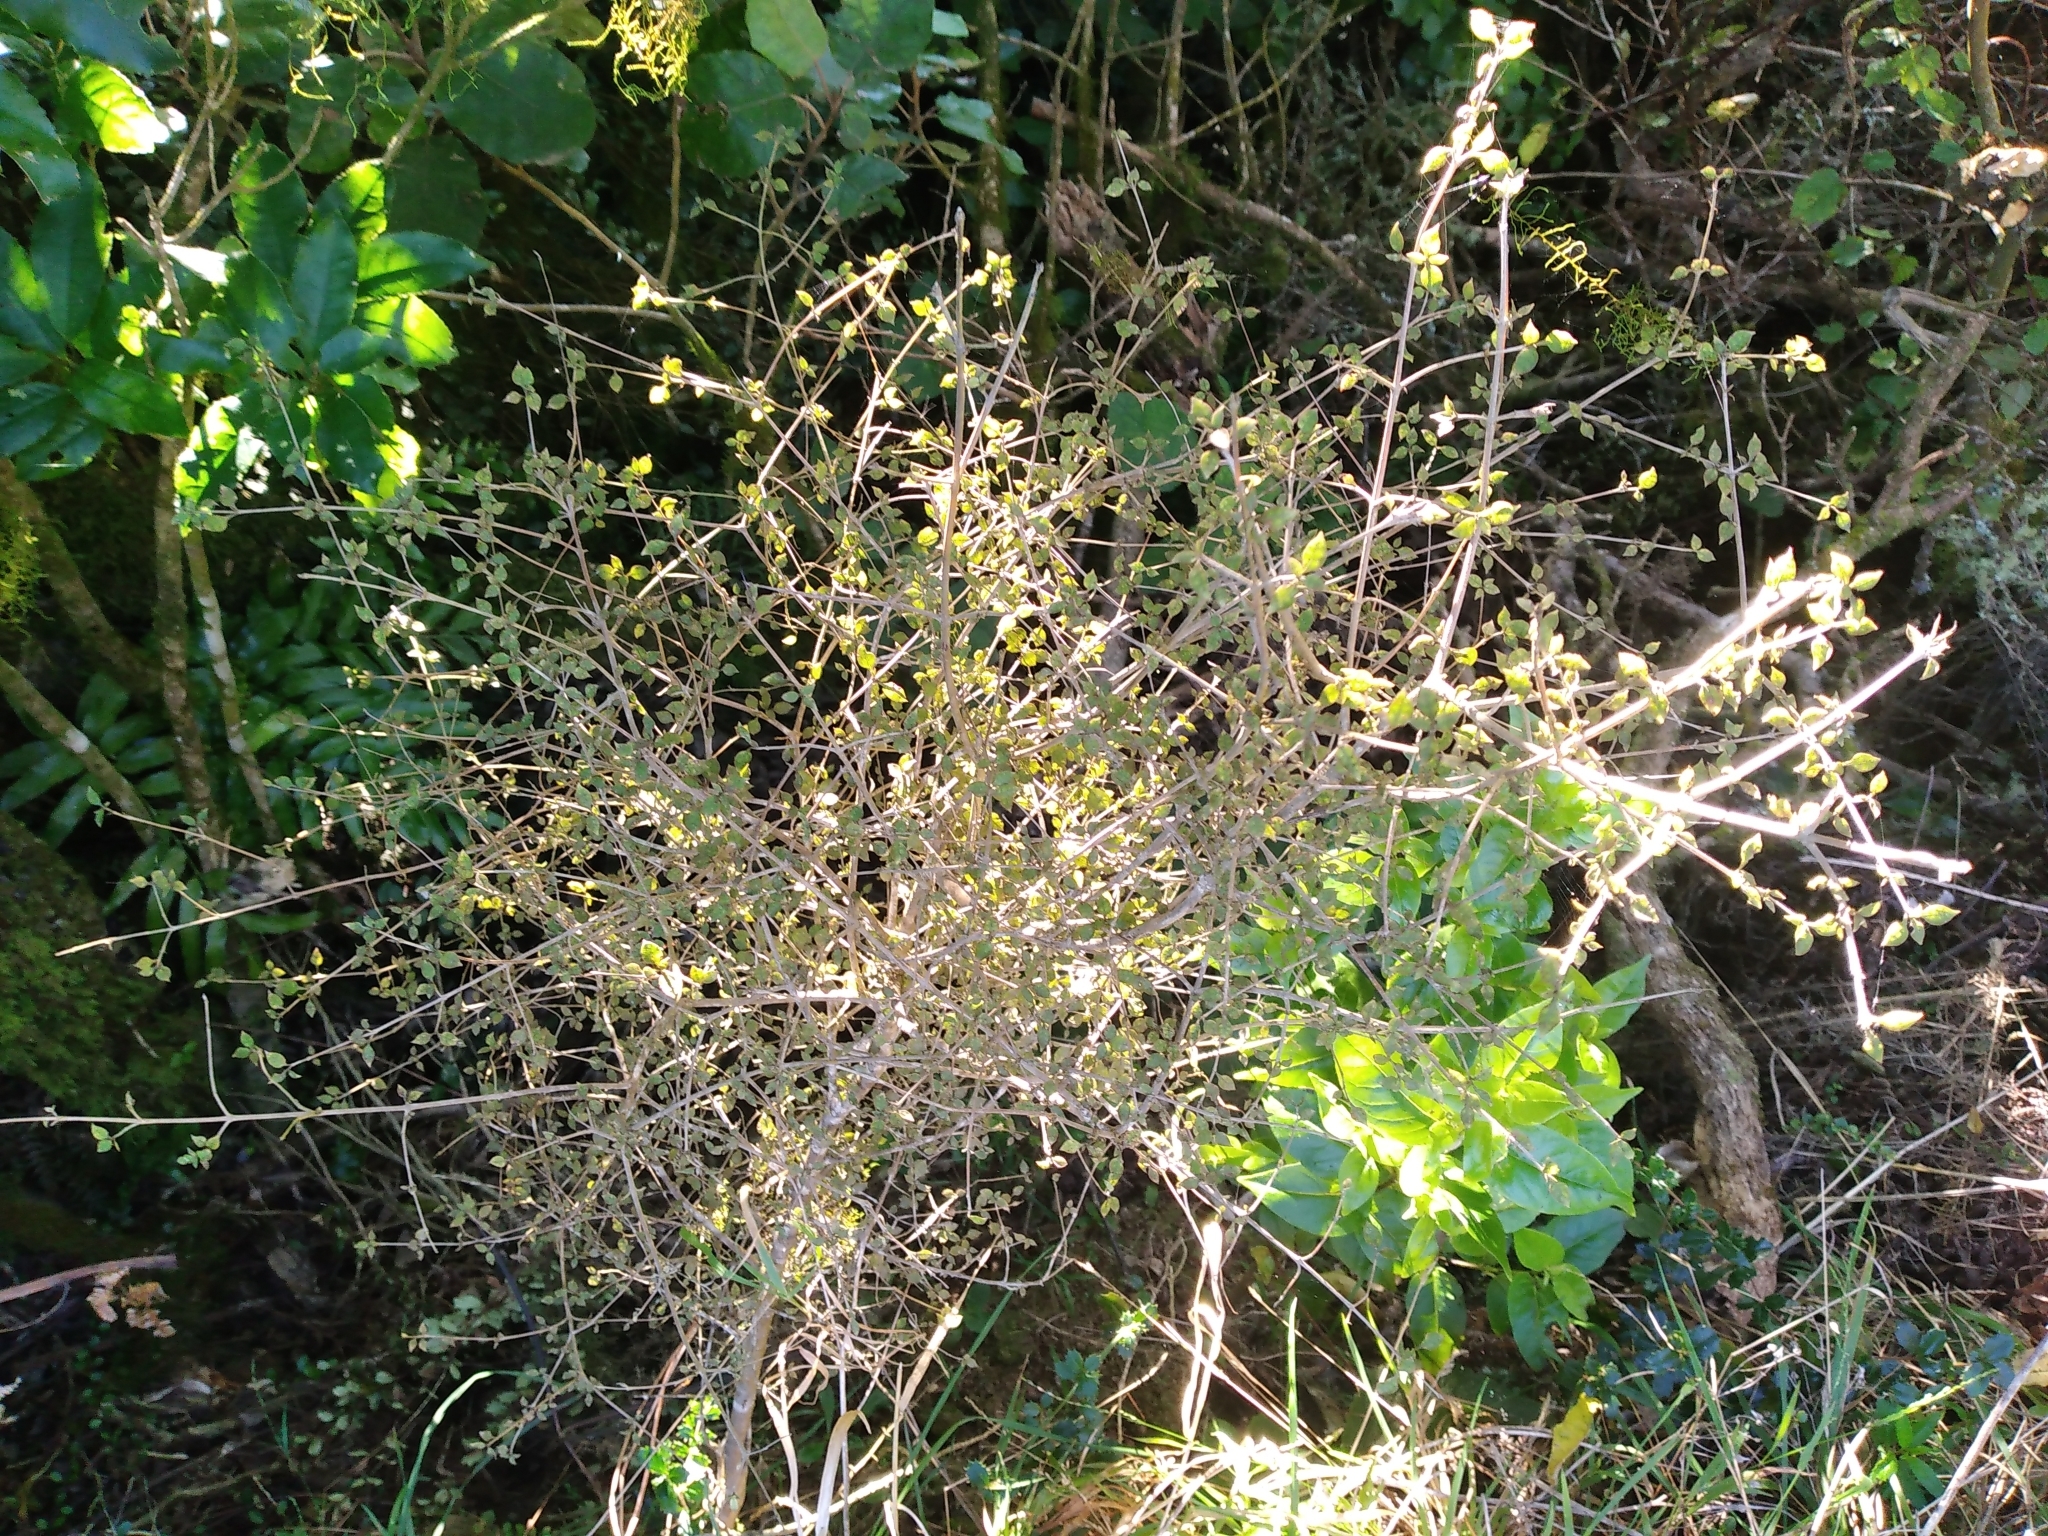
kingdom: Plantae
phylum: Tracheophyta
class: Magnoliopsida
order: Gentianales
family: Rubiaceae
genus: Coprosma
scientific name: Coprosma areolata
